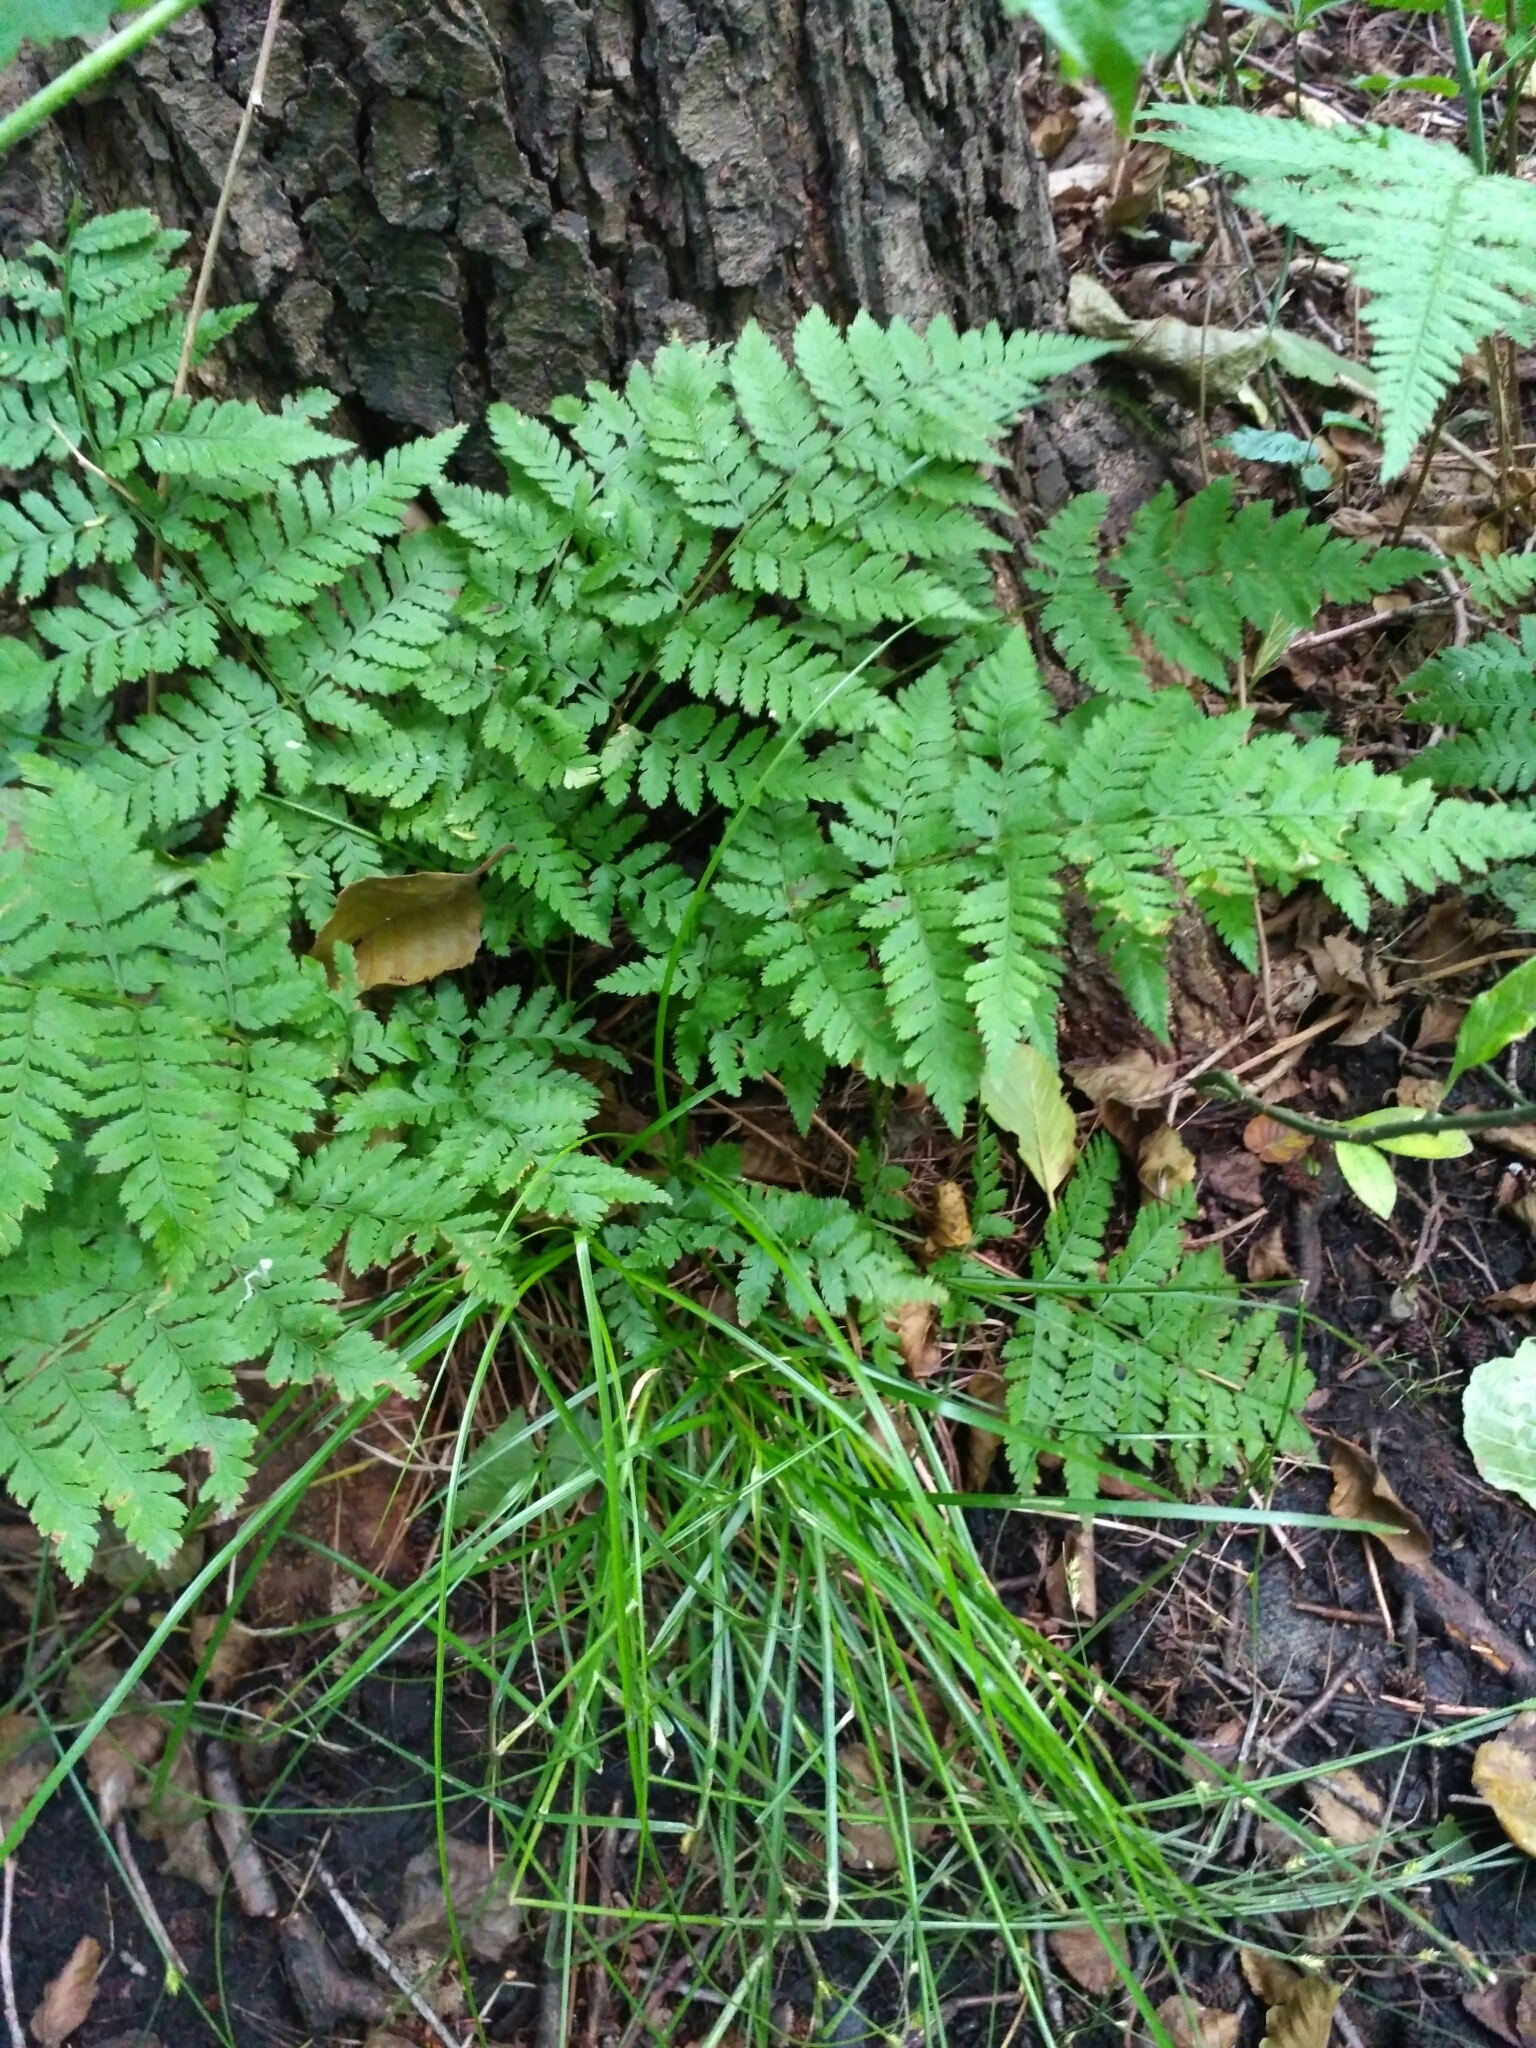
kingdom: Plantae
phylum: Tracheophyta
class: Polypodiopsida
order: Polypodiales
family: Dryopteridaceae
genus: Dryopteris
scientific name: Dryopteris carthusiana
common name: Narrow buckler-fern
